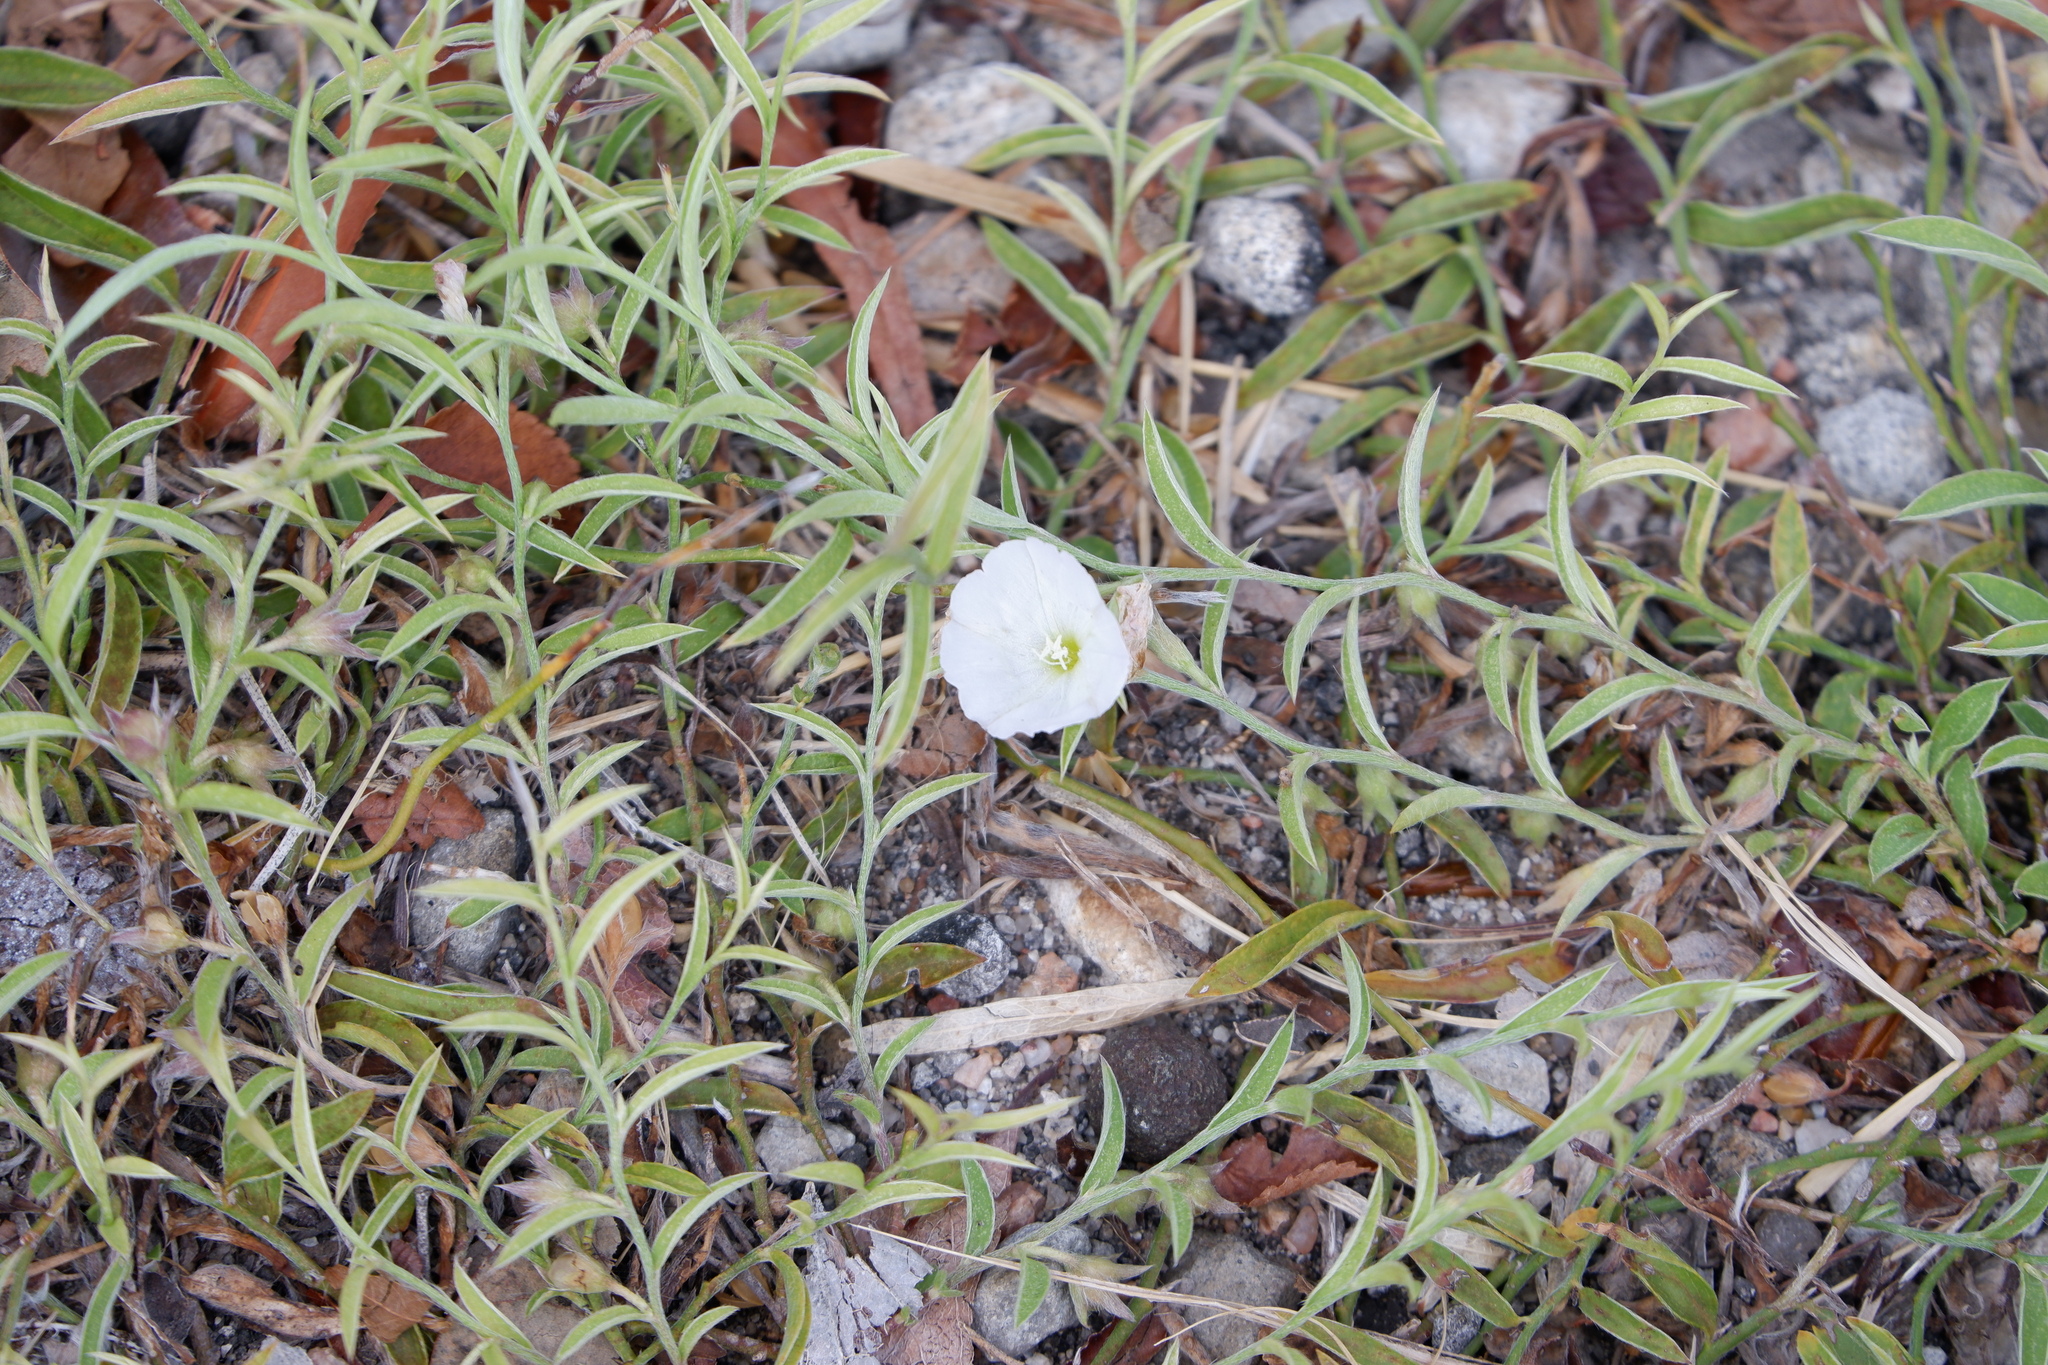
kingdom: Plantae
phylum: Tracheophyta
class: Magnoliopsida
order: Solanales
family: Convolvulaceae
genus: Evolvulus
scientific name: Evolvulus sericeus
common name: Blue dots
